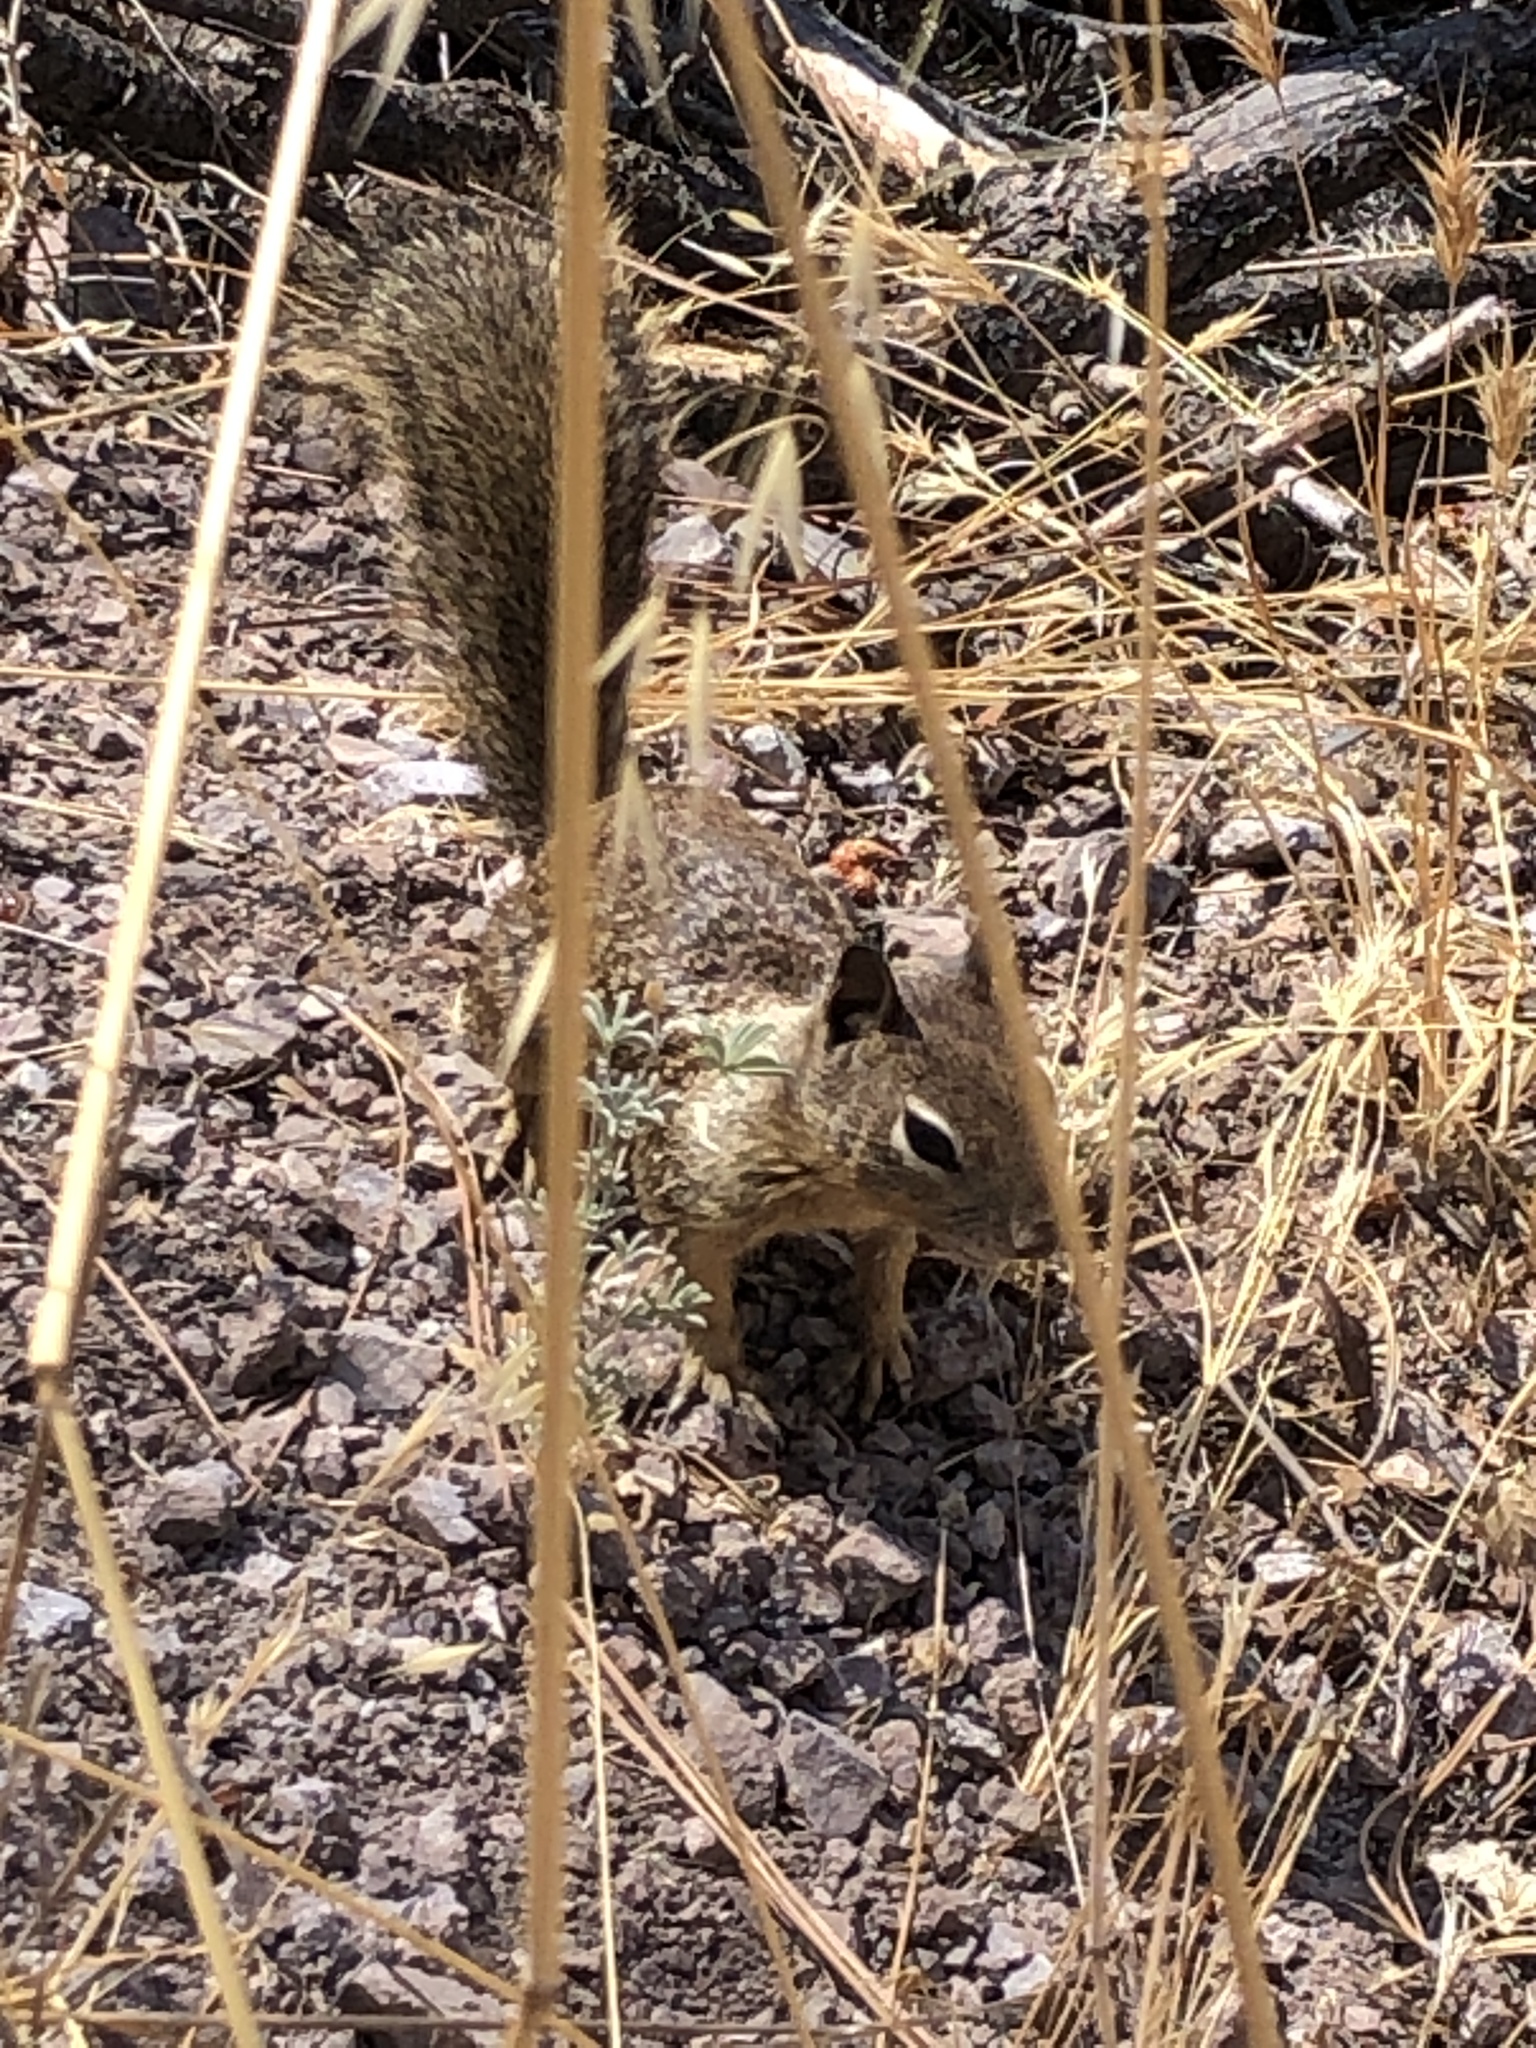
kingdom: Animalia
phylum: Chordata
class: Mammalia
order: Rodentia
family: Sciuridae
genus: Otospermophilus
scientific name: Otospermophilus beecheyi
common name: California ground squirrel
